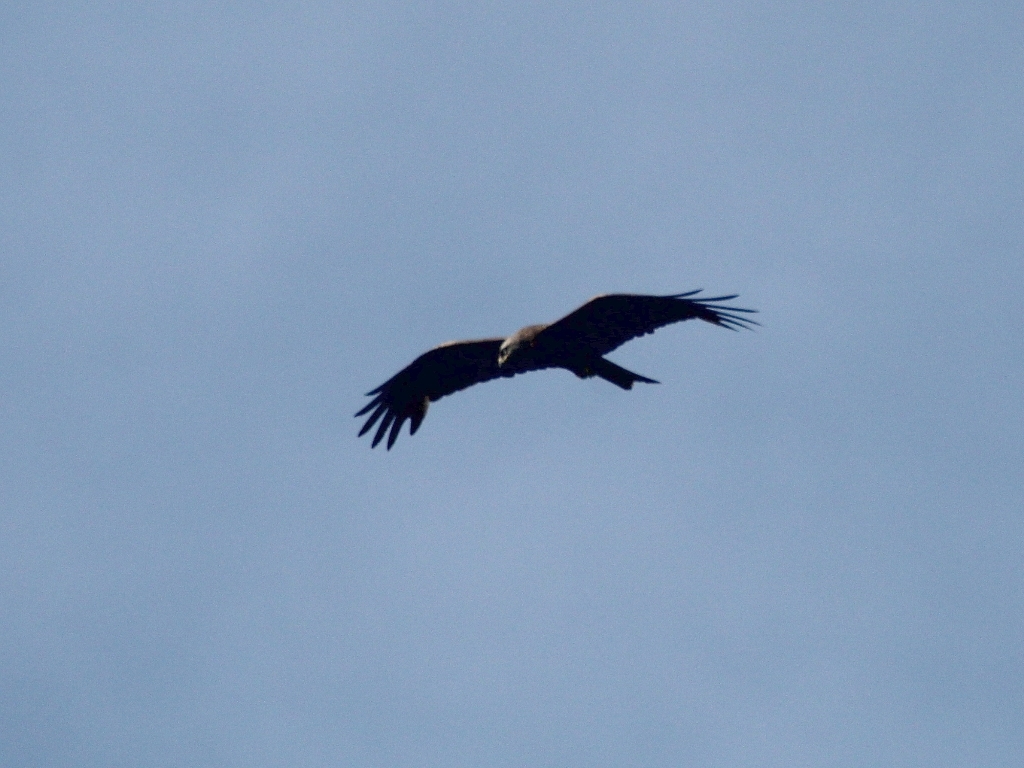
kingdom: Animalia
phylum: Chordata
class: Aves
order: Accipitriformes
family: Accipitridae
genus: Milvus
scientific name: Milvus migrans
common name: Black kite
